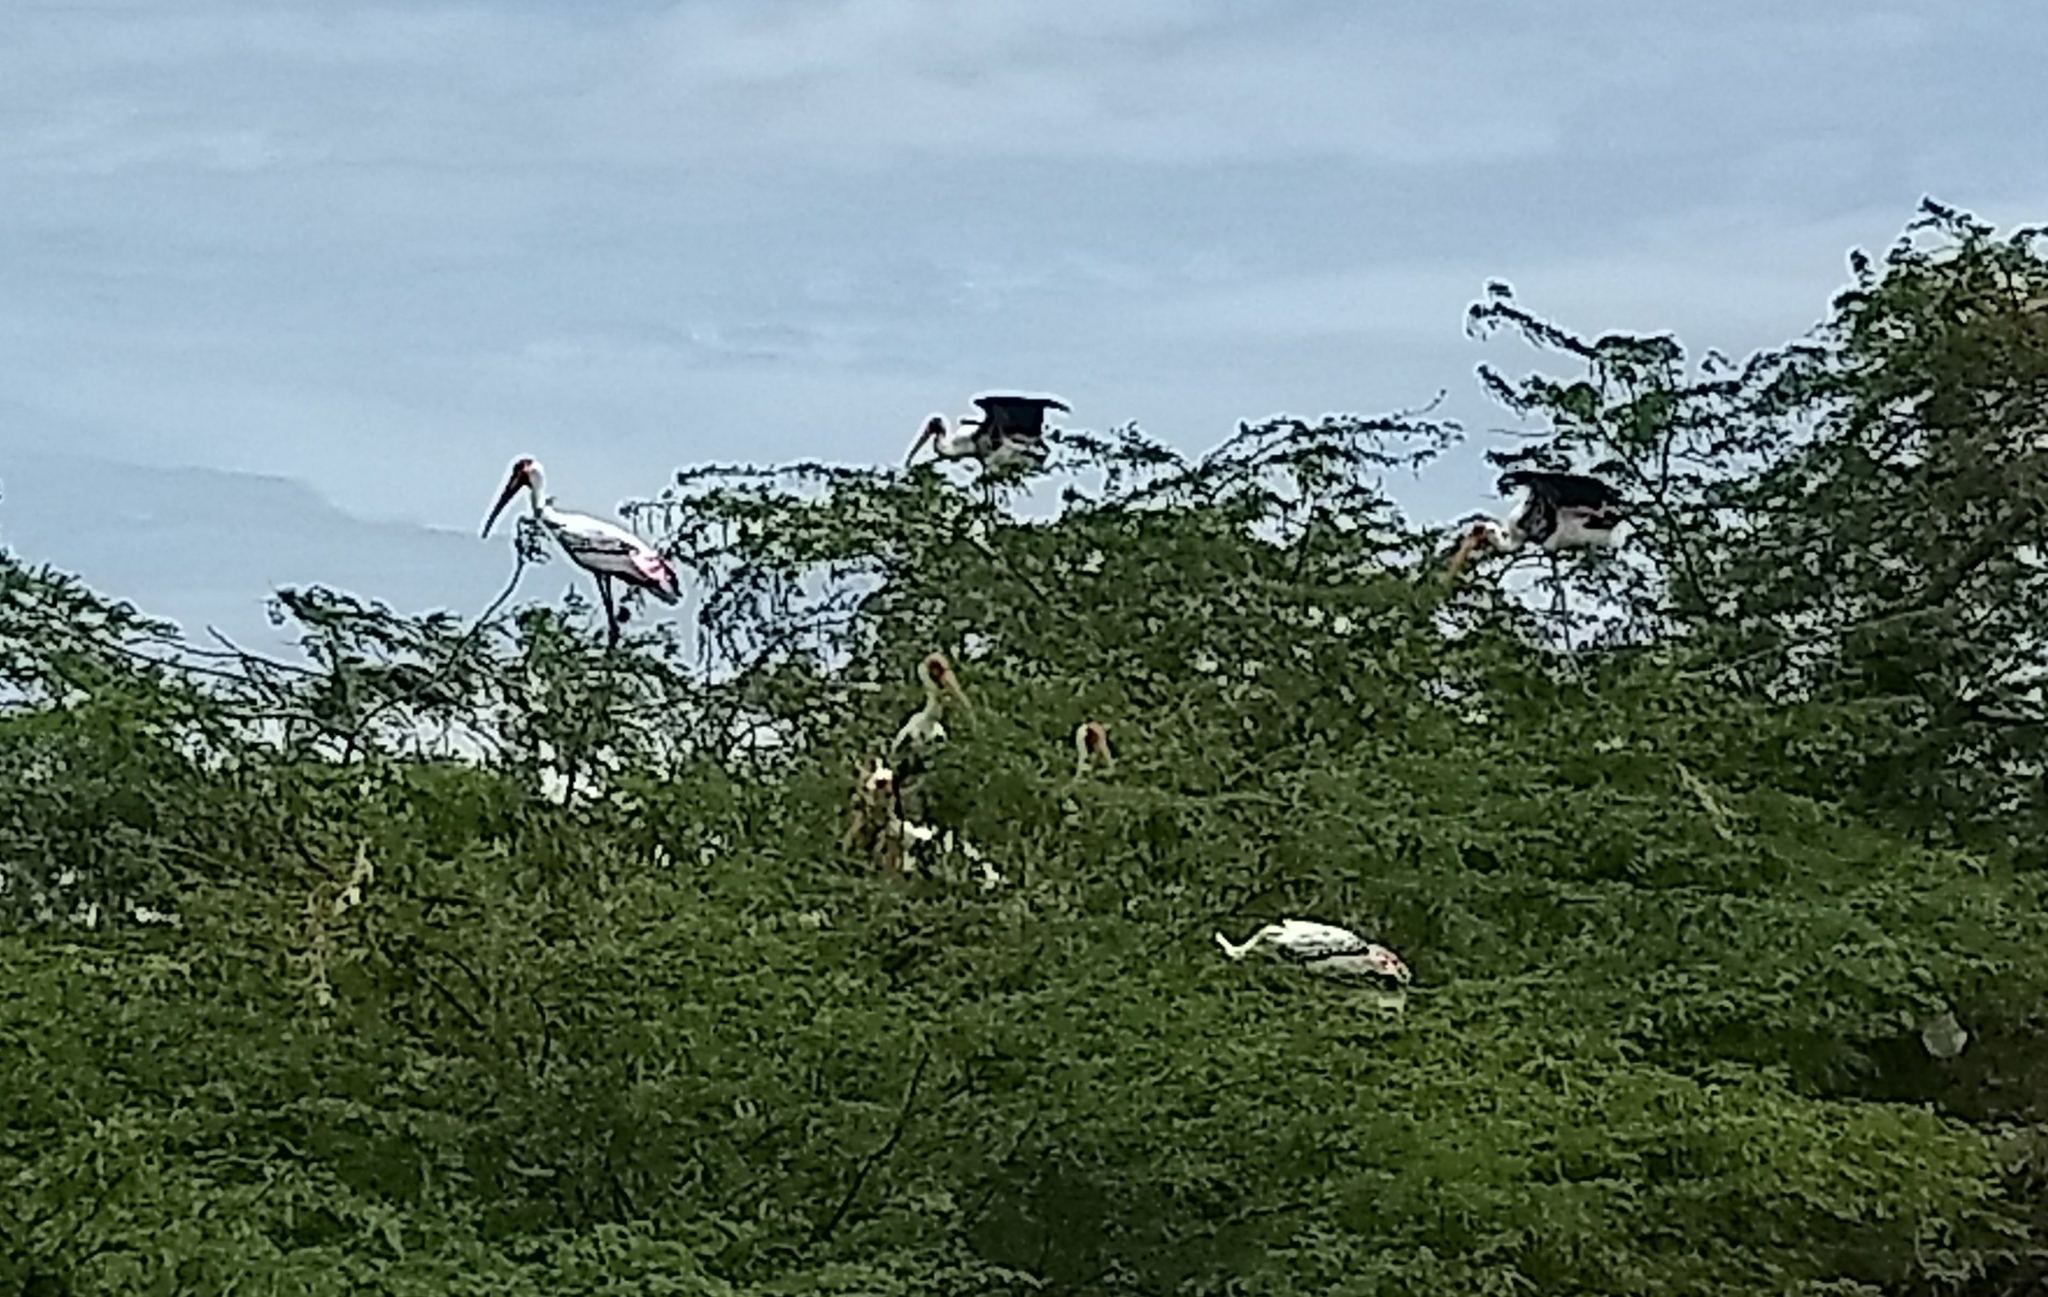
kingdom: Animalia
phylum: Chordata
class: Aves
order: Ciconiiformes
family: Ciconiidae
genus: Mycteria
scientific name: Mycteria leucocephala
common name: Painted stork
